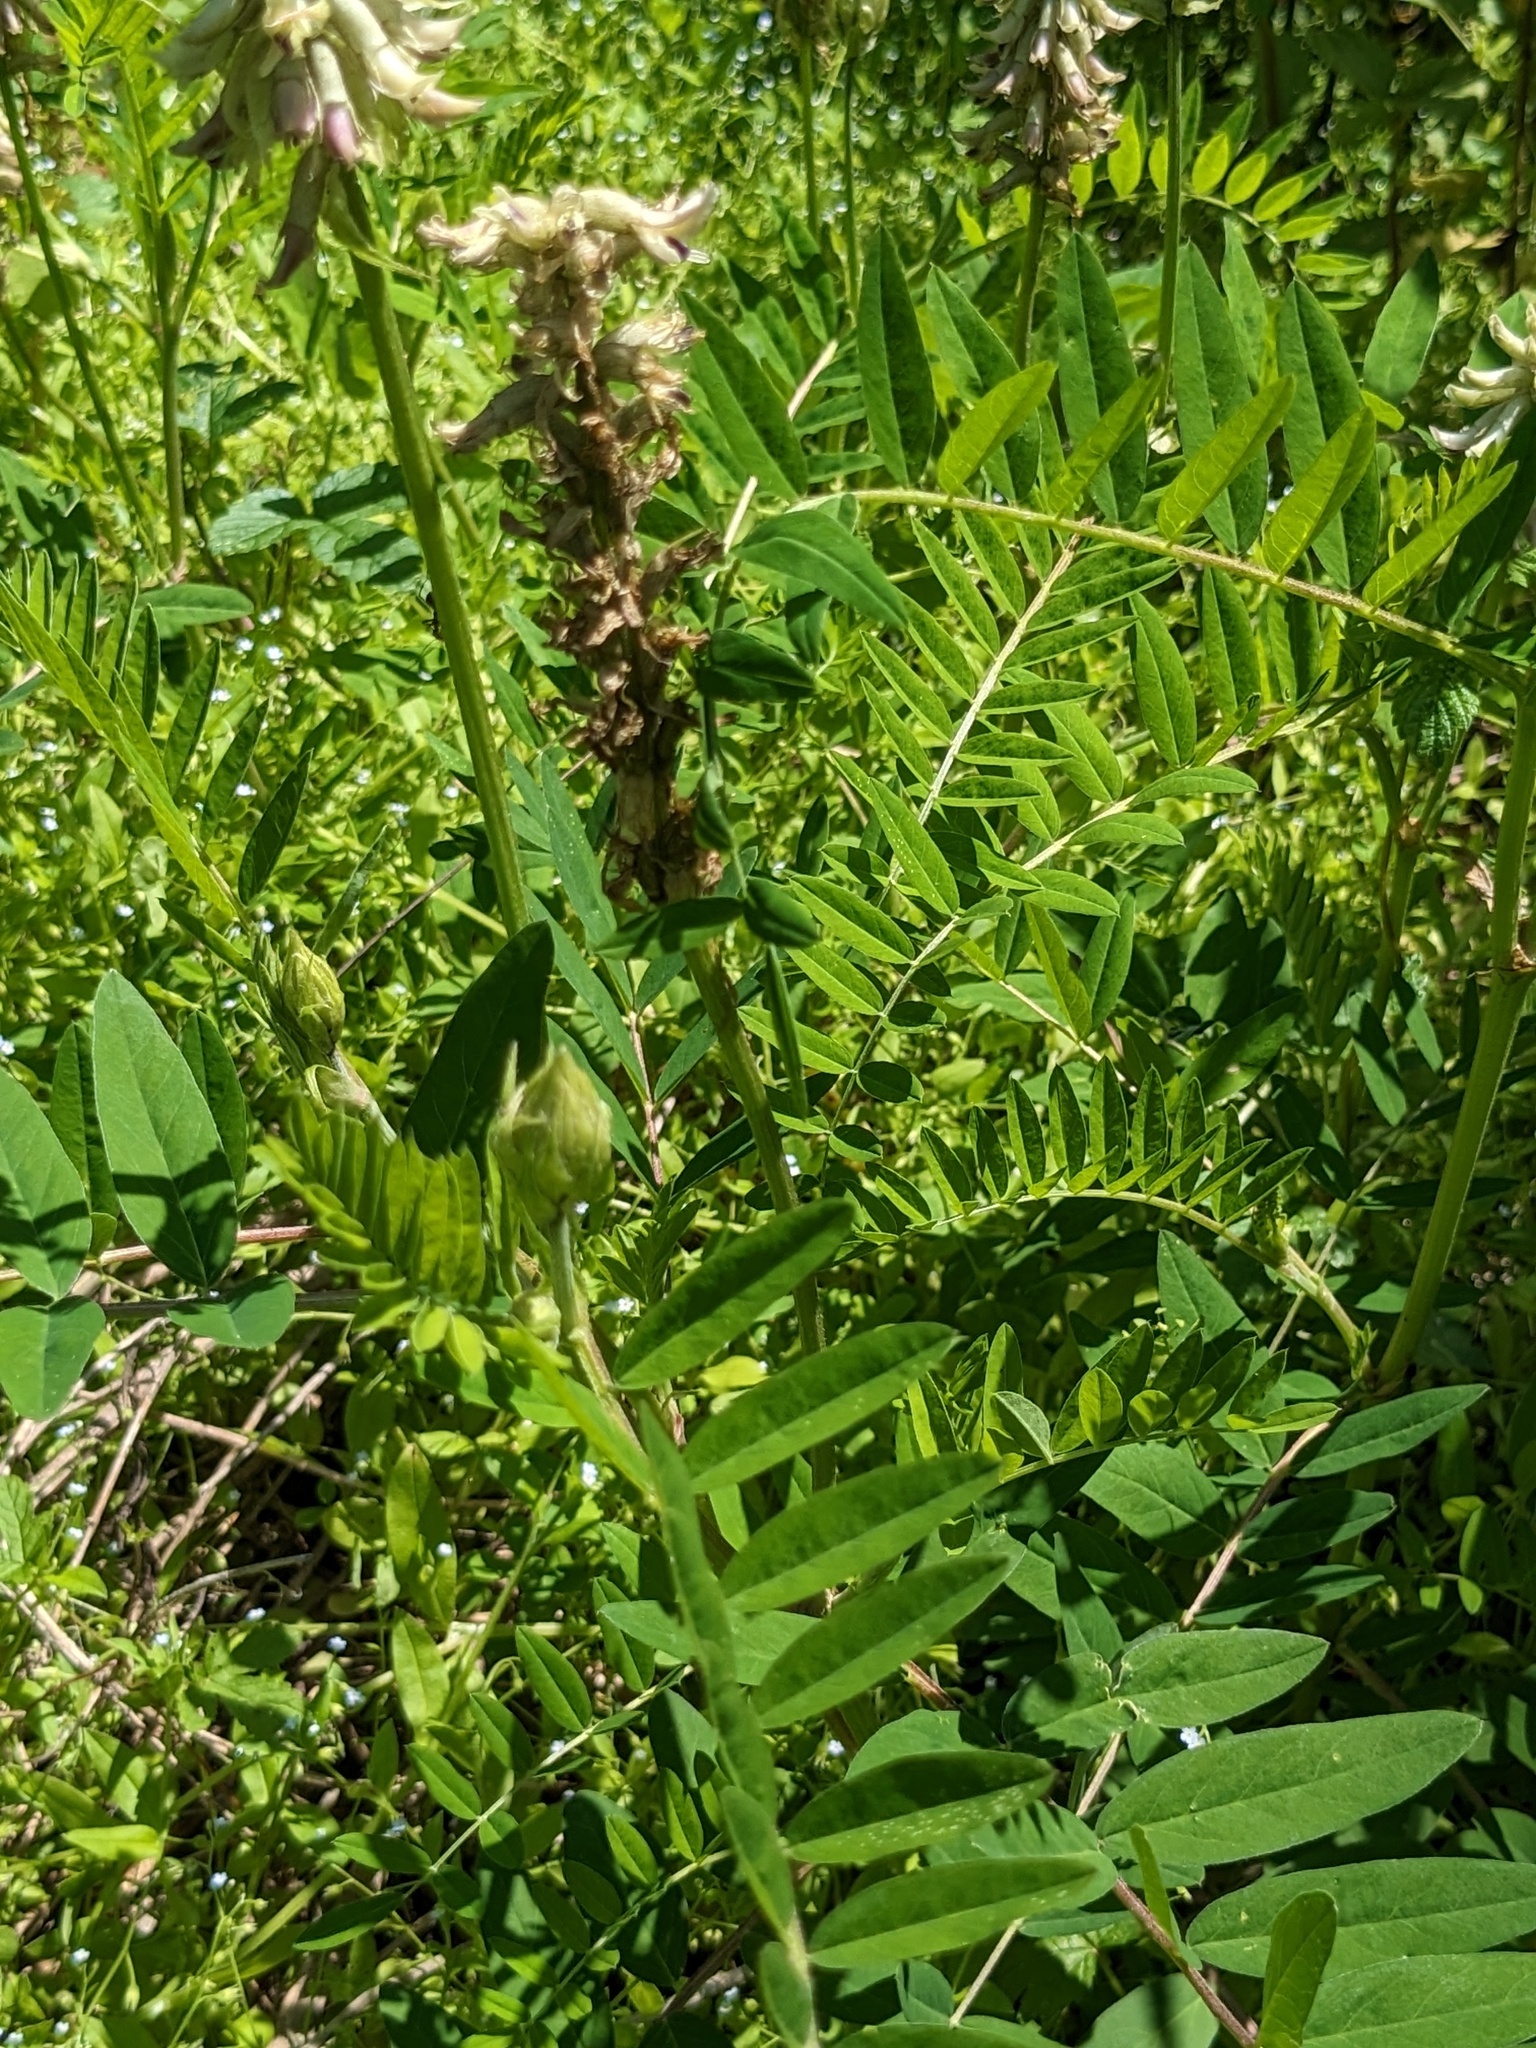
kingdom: Plantae
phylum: Tracheophyta
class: Magnoliopsida
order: Fabales
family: Fabaceae
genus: Astragalus
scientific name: Astragalus uliginosus
